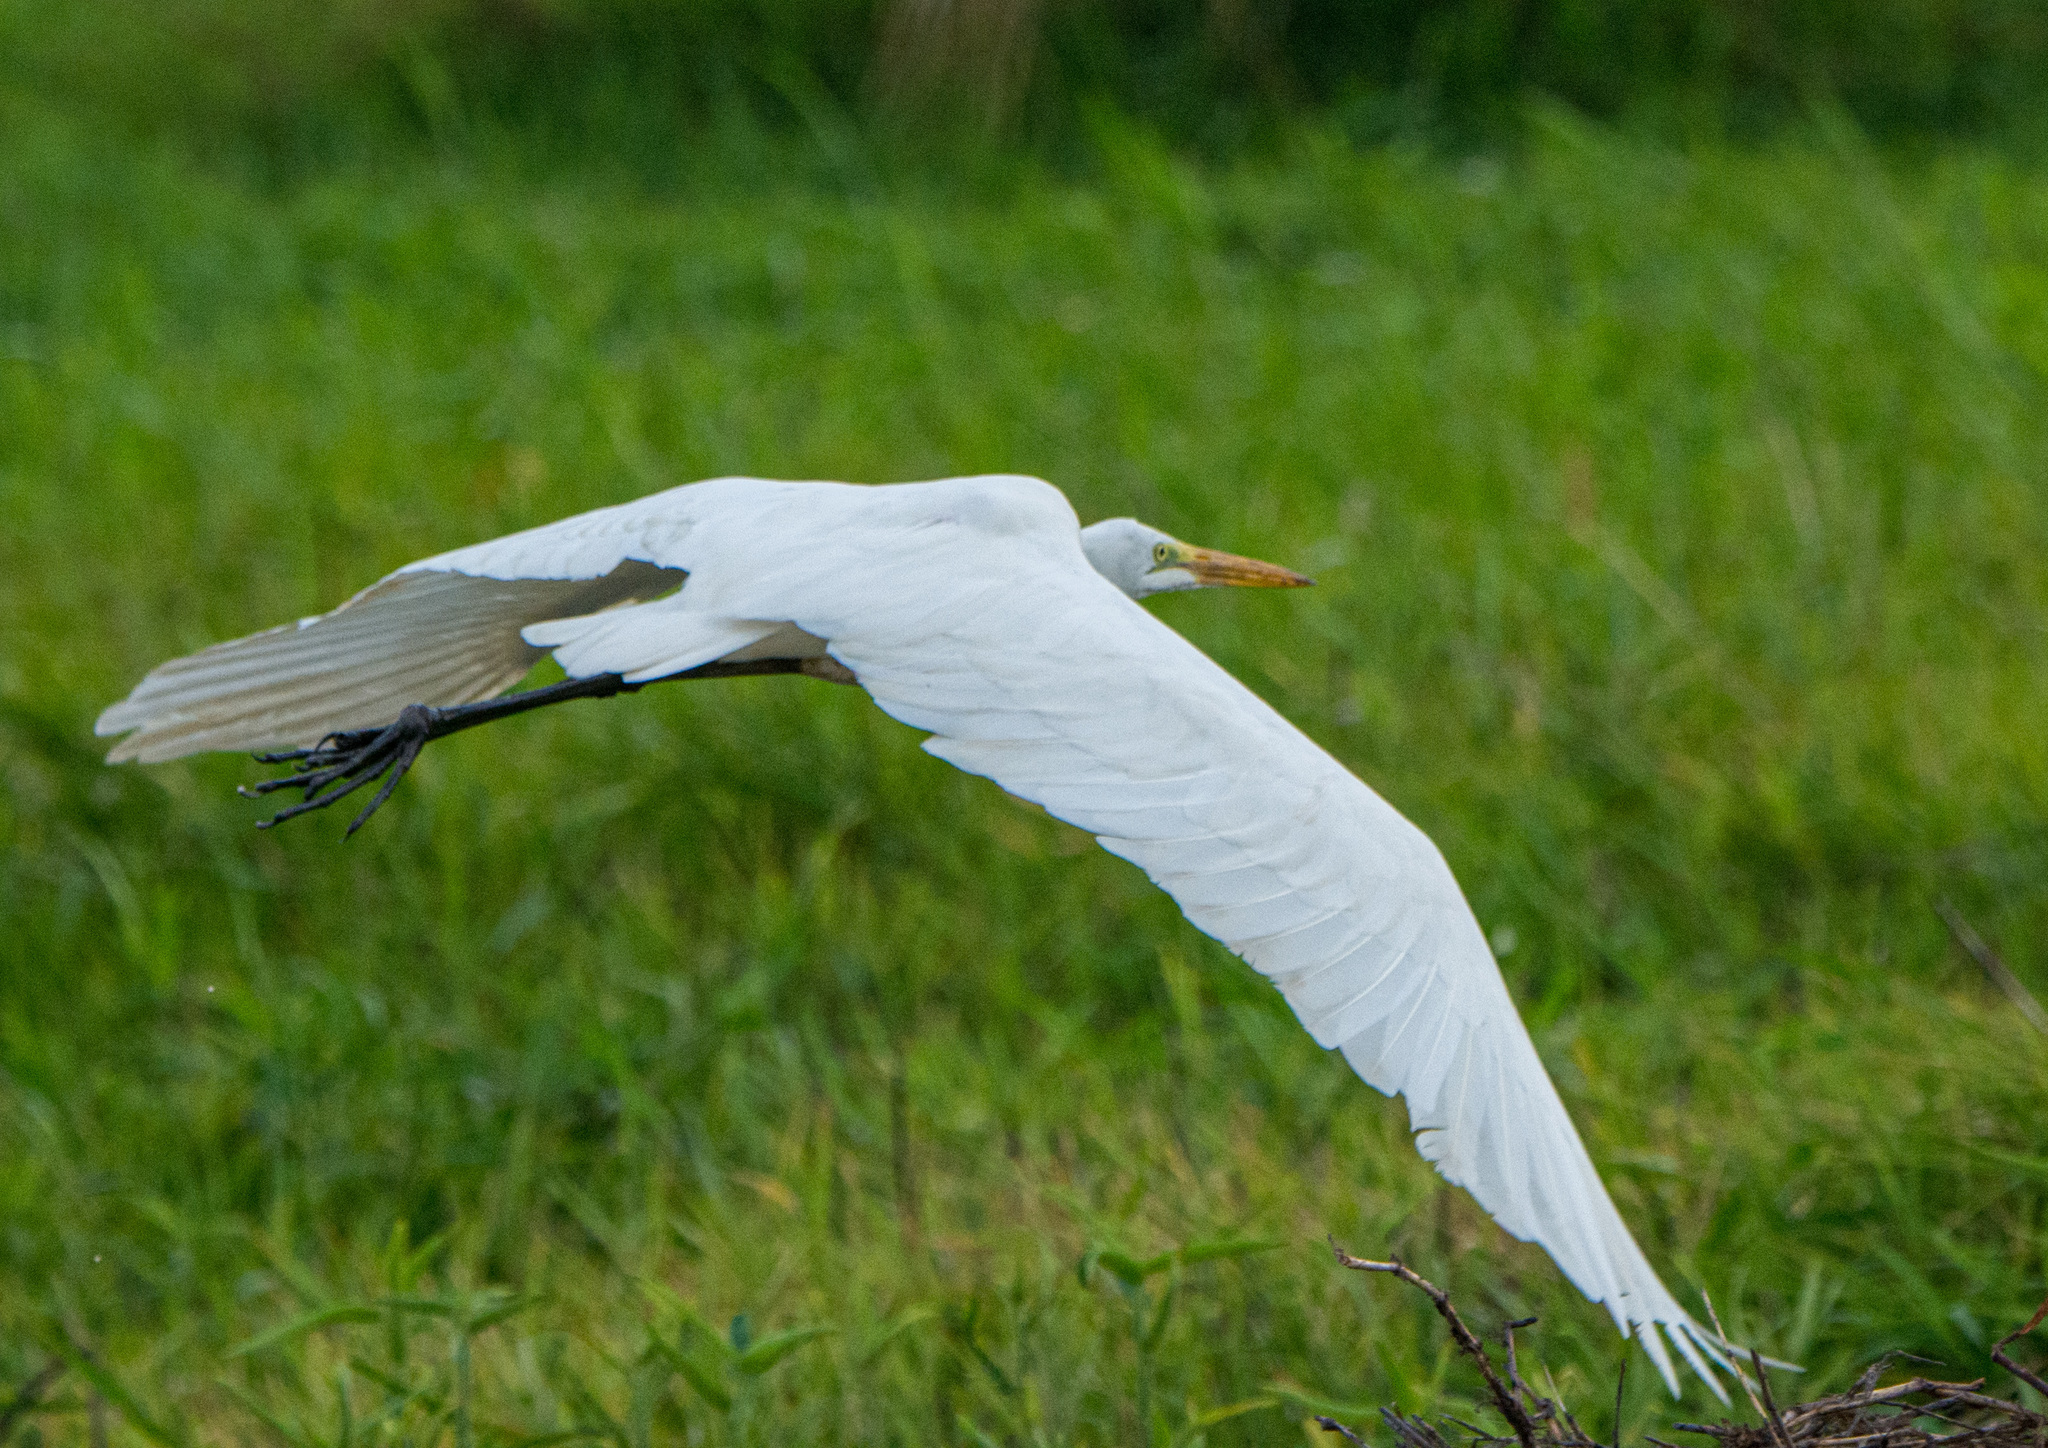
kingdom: Animalia
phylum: Chordata
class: Aves
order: Pelecaniformes
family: Ardeidae
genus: Ardea
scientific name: Ardea alba
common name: Great egret
